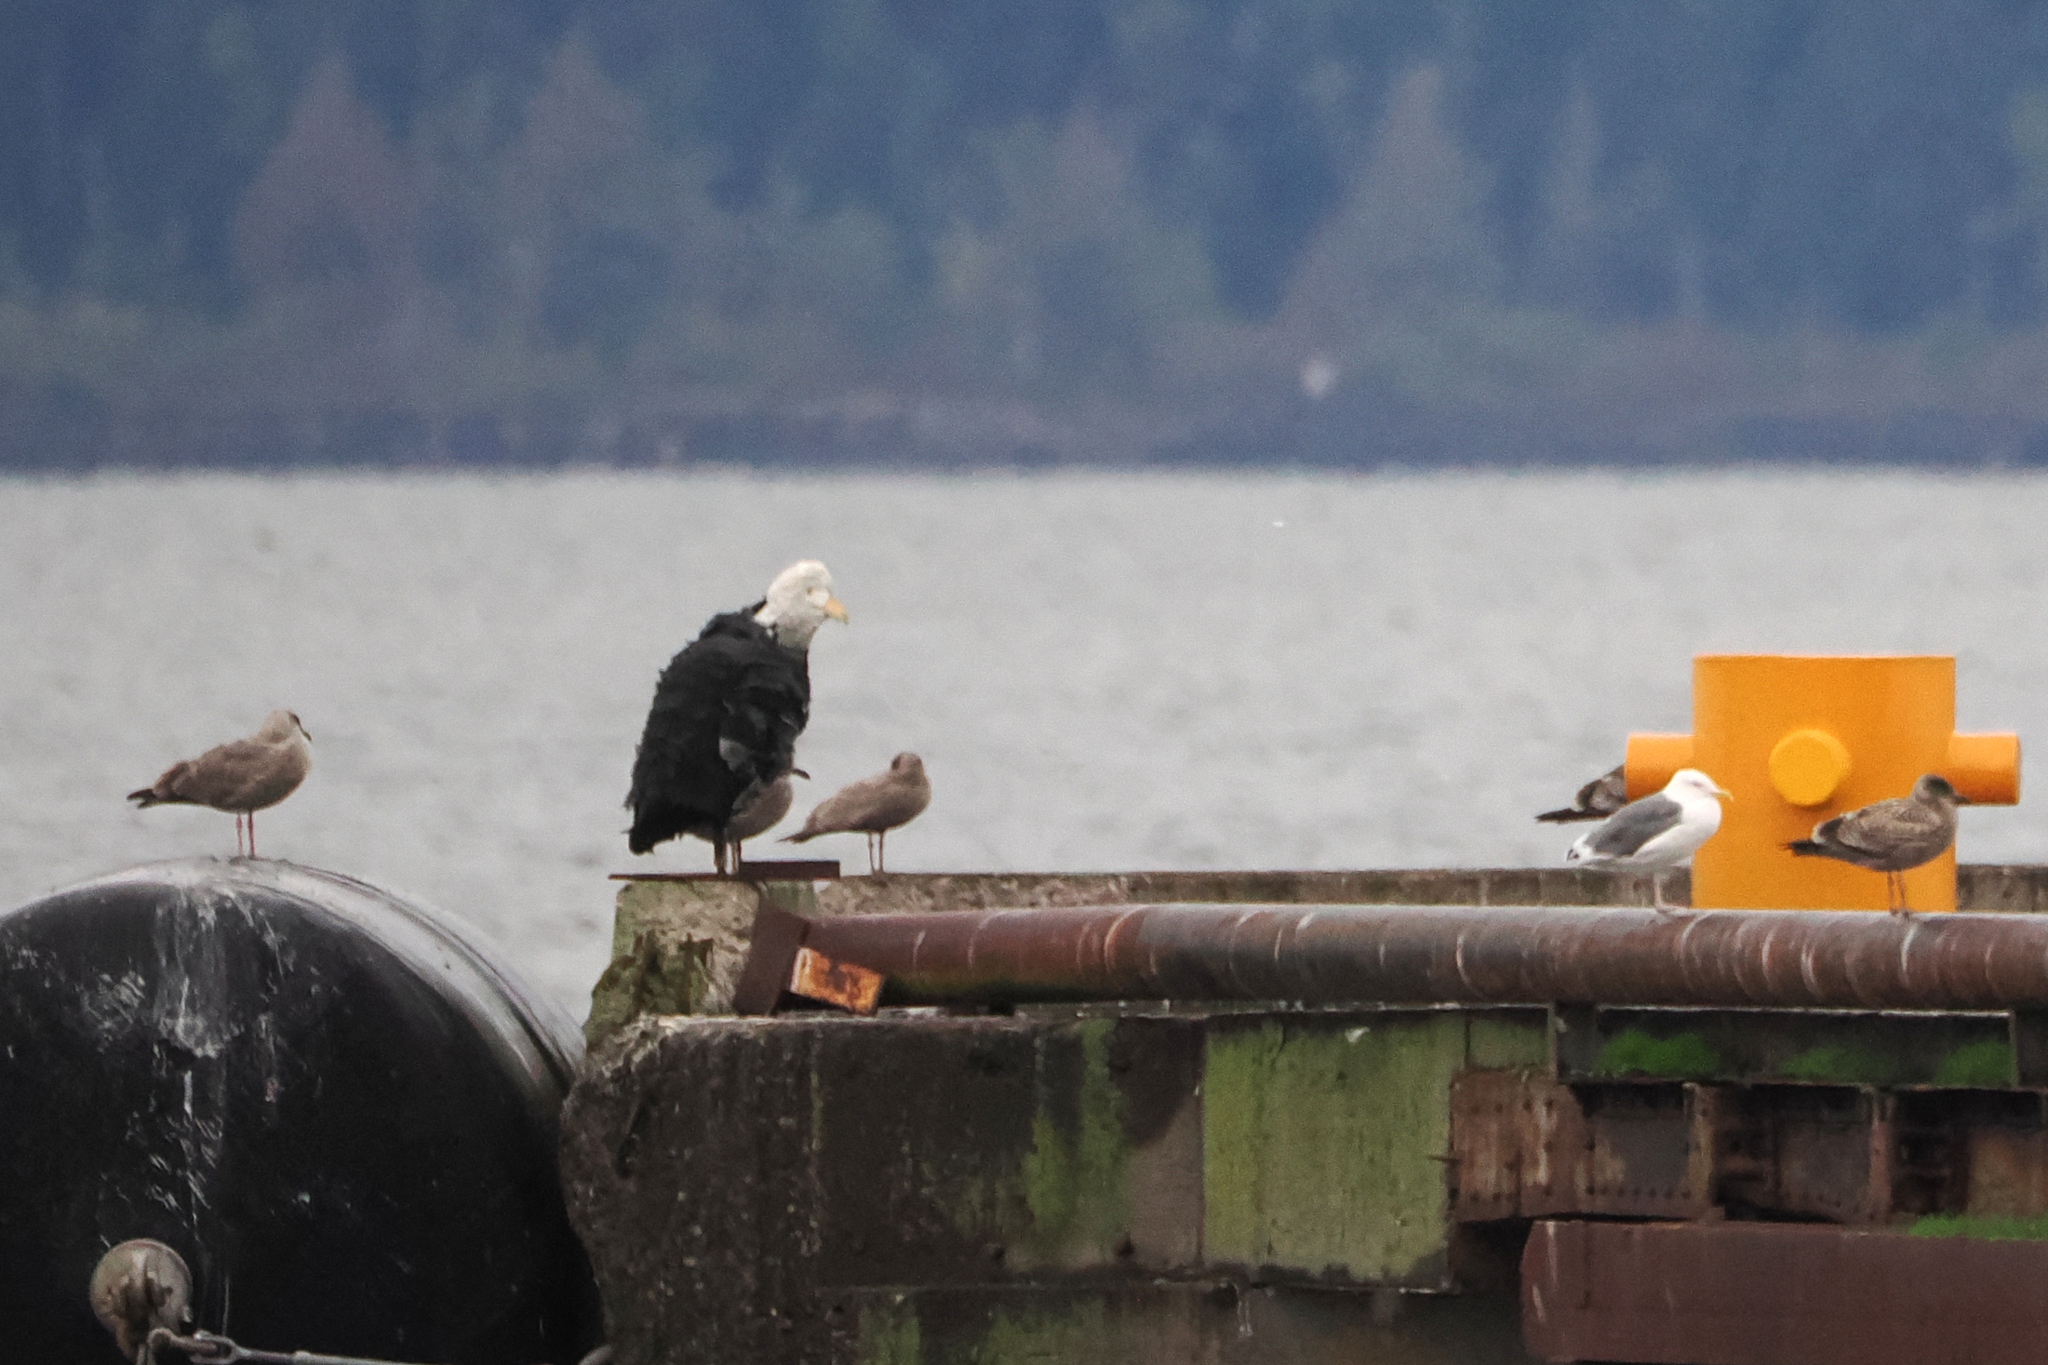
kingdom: Animalia
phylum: Chordata
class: Aves
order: Charadriiformes
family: Laridae
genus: Larus
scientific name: Larus occidentalis
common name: Western gull
